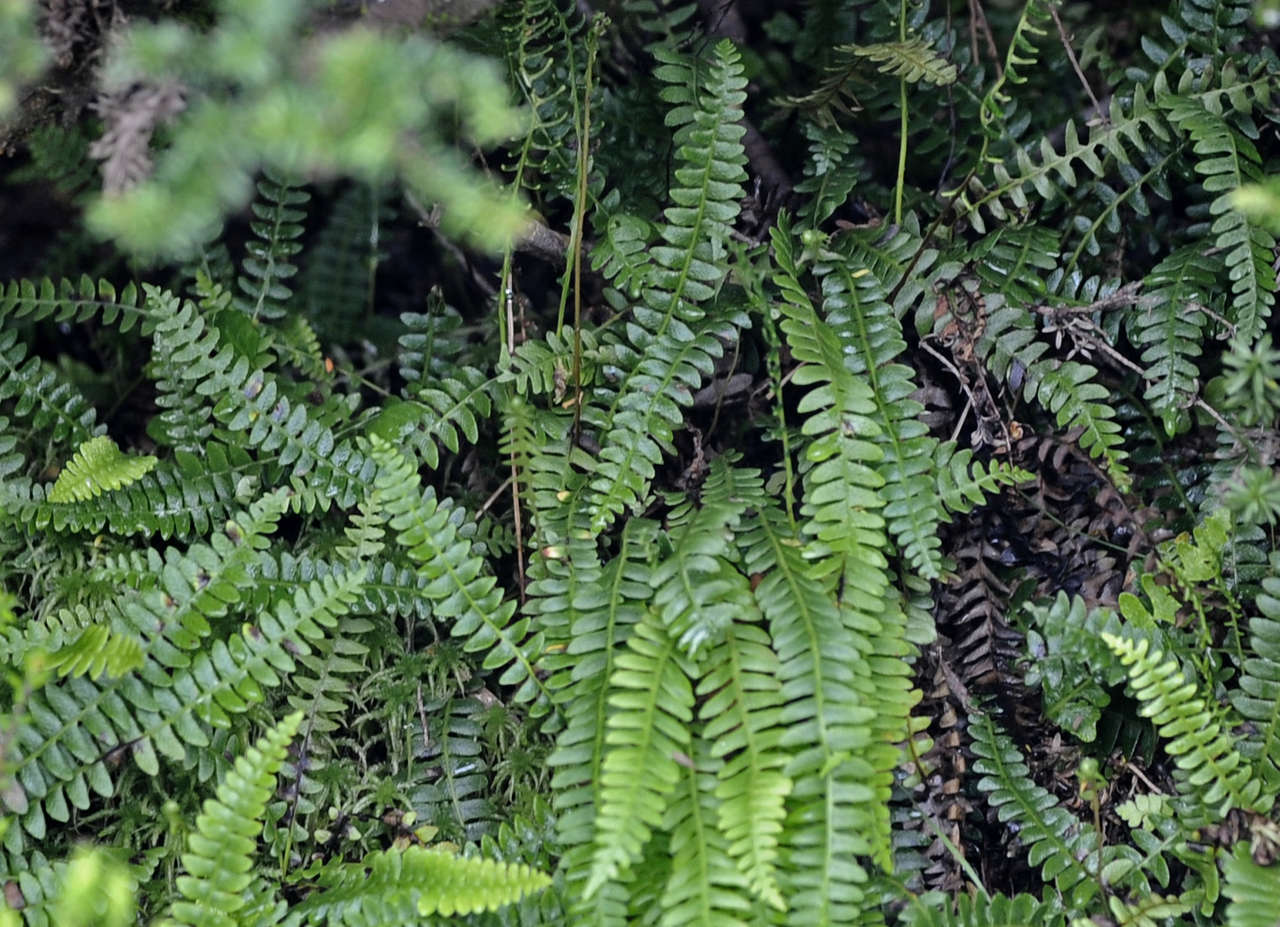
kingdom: Plantae
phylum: Tracheophyta
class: Polypodiopsida
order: Polypodiales
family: Blechnaceae
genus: Austroblechnum
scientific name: Austroblechnum penna-marina
